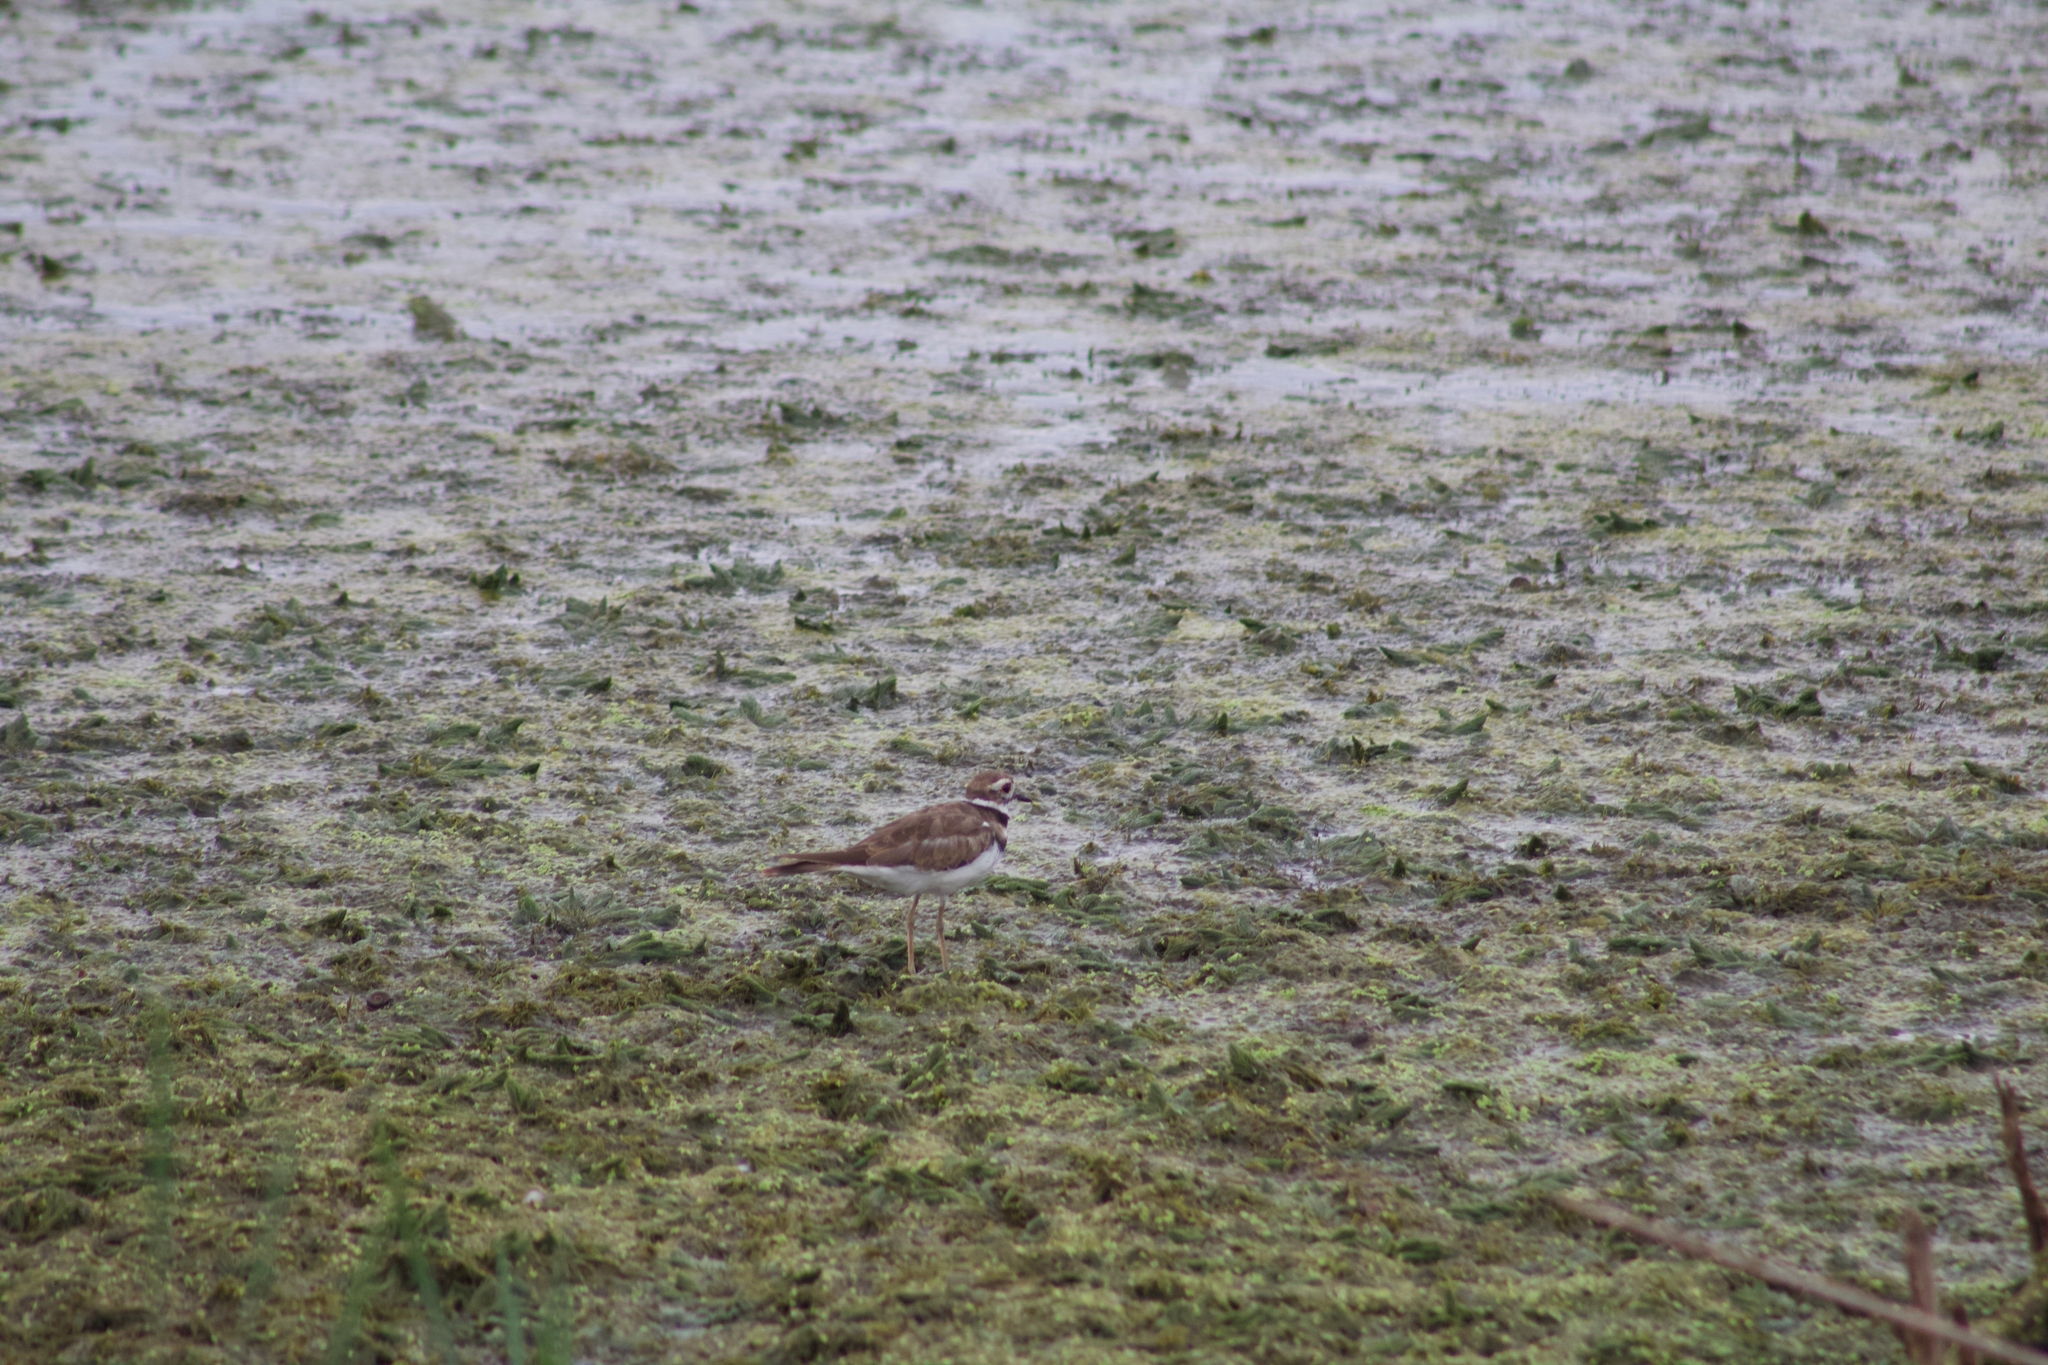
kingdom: Animalia
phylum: Chordata
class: Aves
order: Charadriiformes
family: Charadriidae
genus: Charadrius
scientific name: Charadrius vociferus
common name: Killdeer
